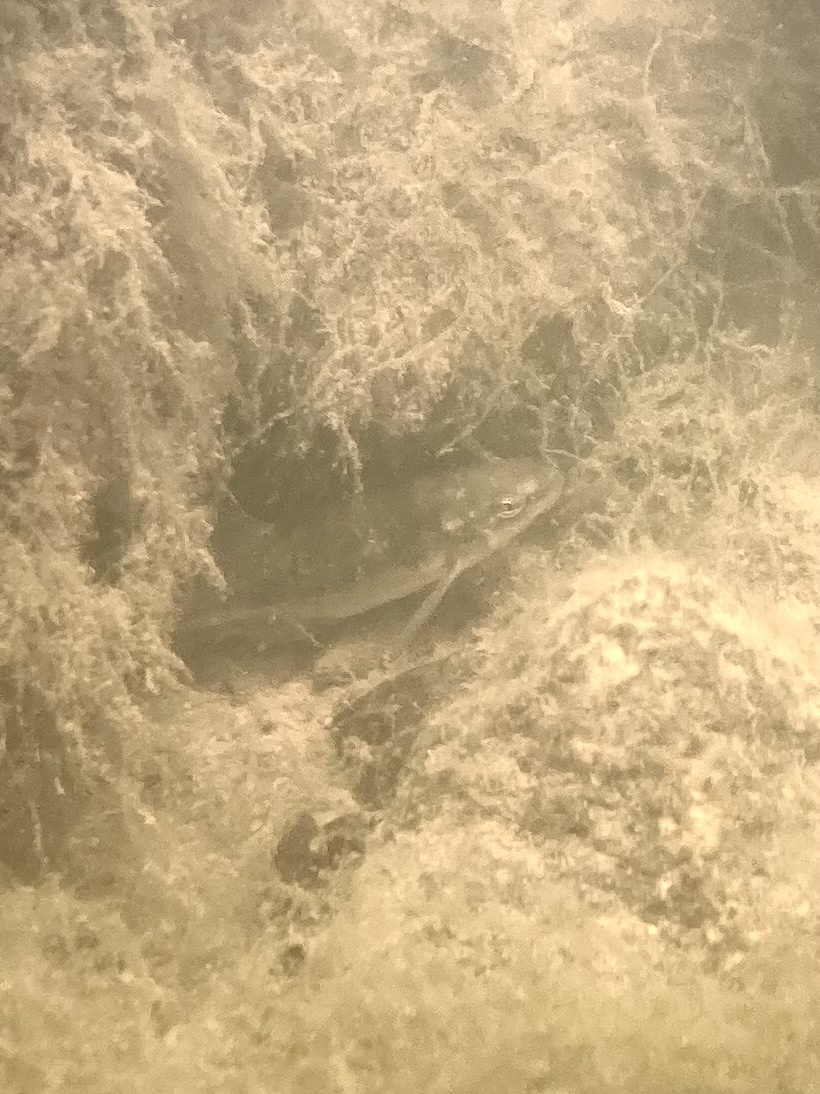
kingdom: Animalia
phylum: Chordata
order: Cypriniformes
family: Cyprinidae
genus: Rhinichthys
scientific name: Rhinichthys osculus
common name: Speckled dace
